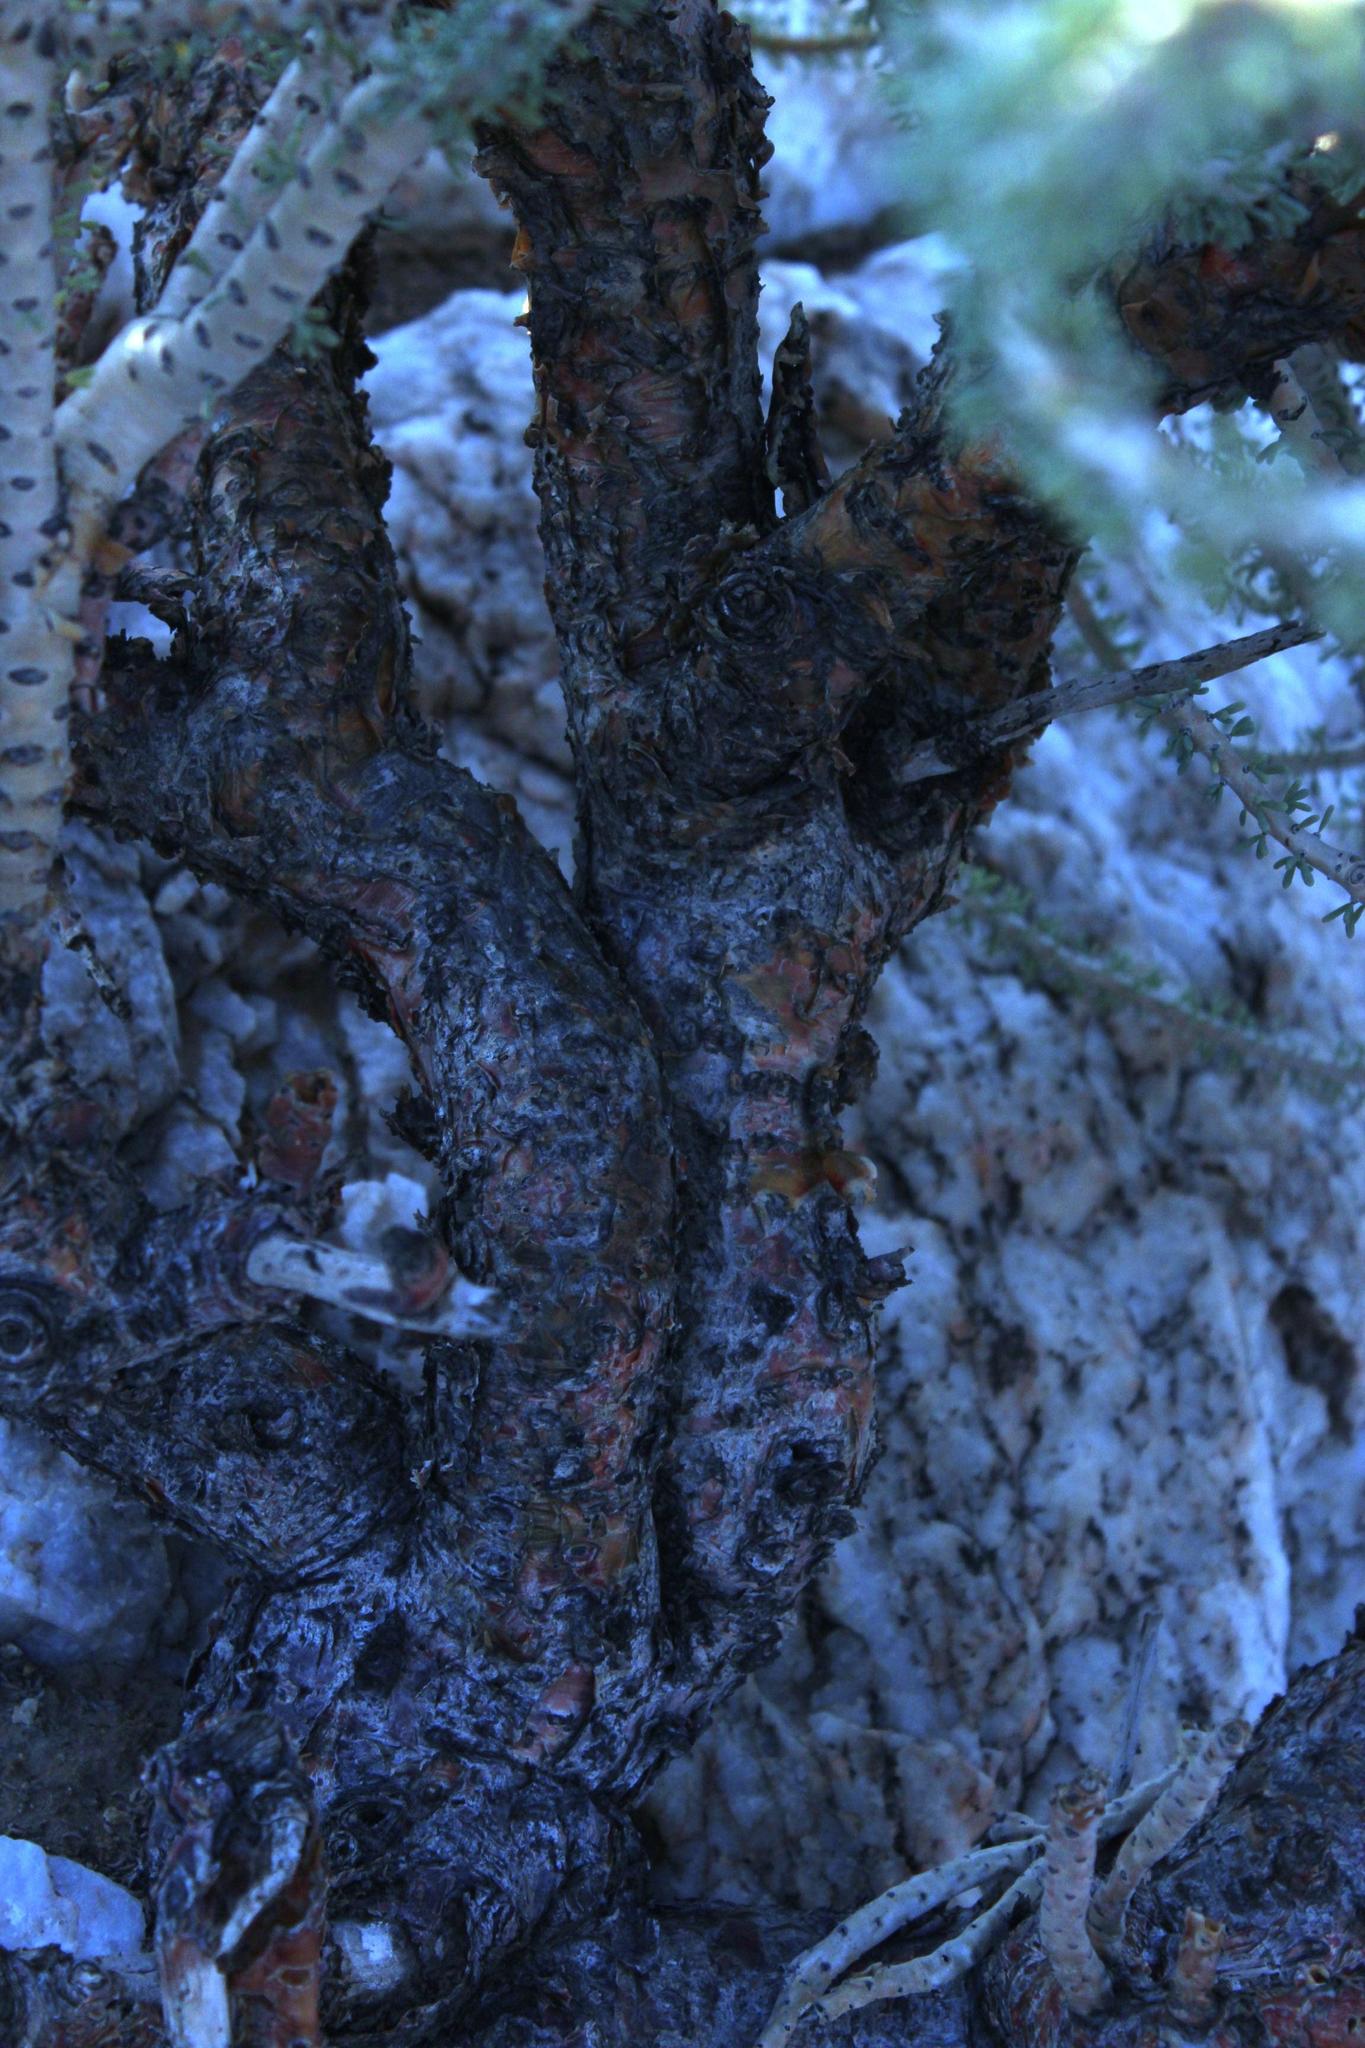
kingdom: Plantae
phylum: Tracheophyta
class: Magnoliopsida
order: Caryophyllales
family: Didiereaceae
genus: Portulacaria
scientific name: Portulacaria namaquensis
